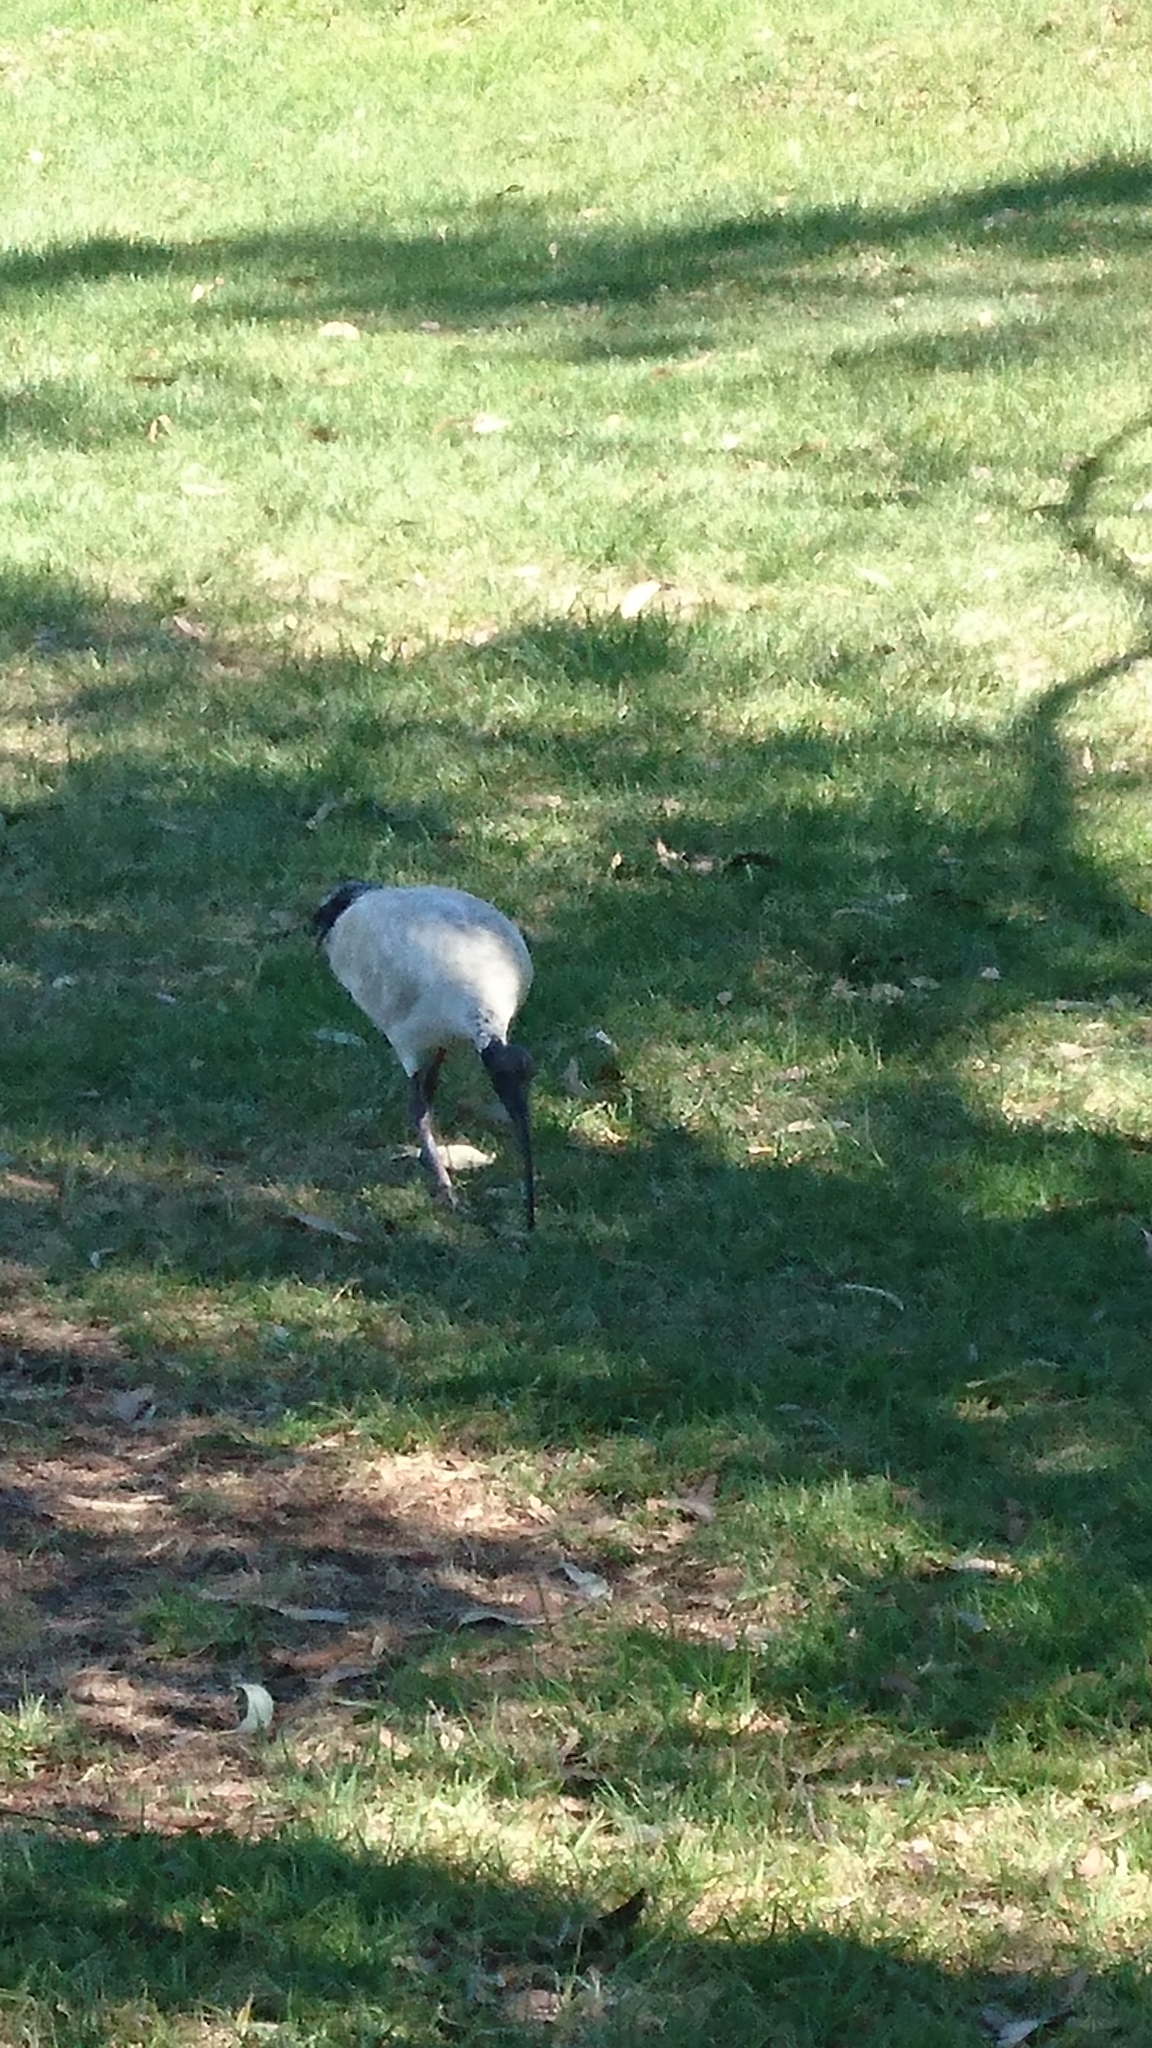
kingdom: Animalia
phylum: Chordata
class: Aves
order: Pelecaniformes
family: Threskiornithidae
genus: Threskiornis
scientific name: Threskiornis molucca
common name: Australian white ibis
